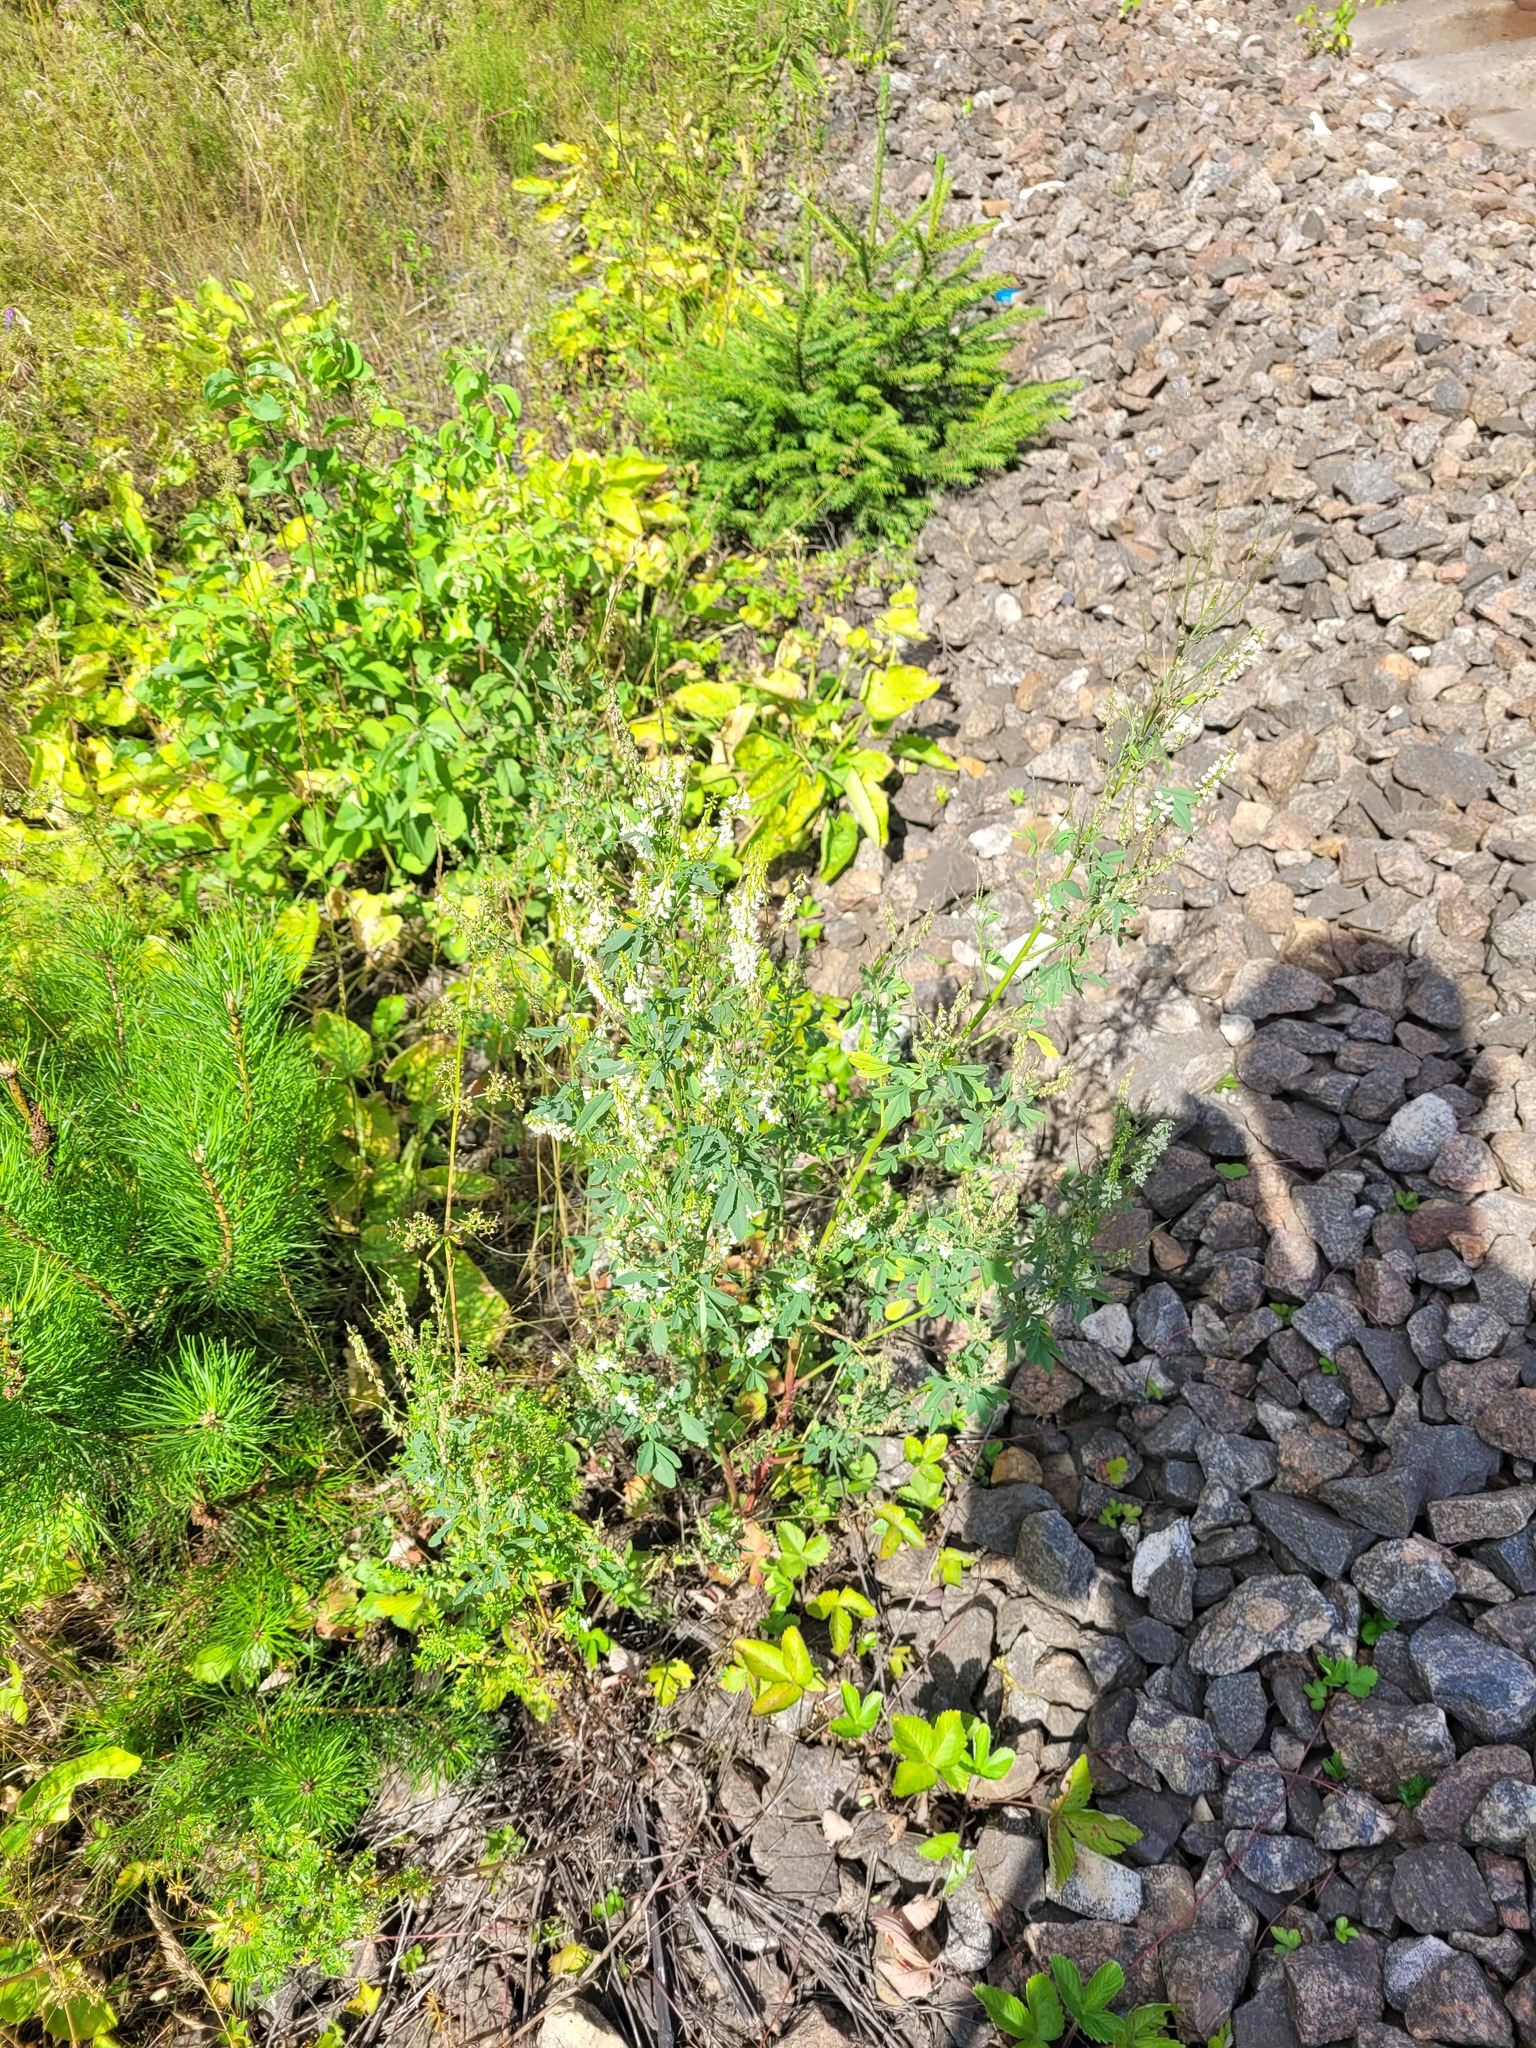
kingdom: Plantae
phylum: Tracheophyta
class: Magnoliopsida
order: Fabales
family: Fabaceae
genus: Melilotus
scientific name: Melilotus albus
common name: White melilot
